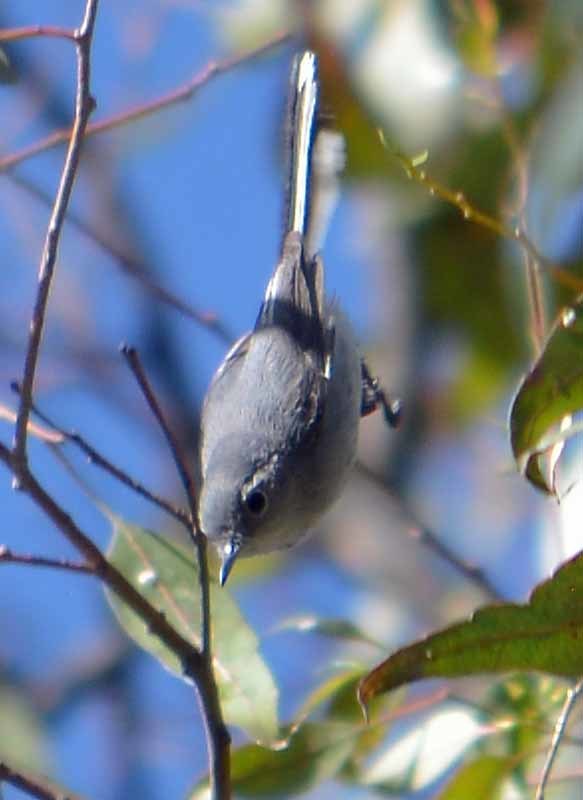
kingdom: Animalia
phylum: Chordata
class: Aves
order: Passeriformes
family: Polioptilidae
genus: Polioptila
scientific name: Polioptila caerulea
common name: Blue-gray gnatcatcher
